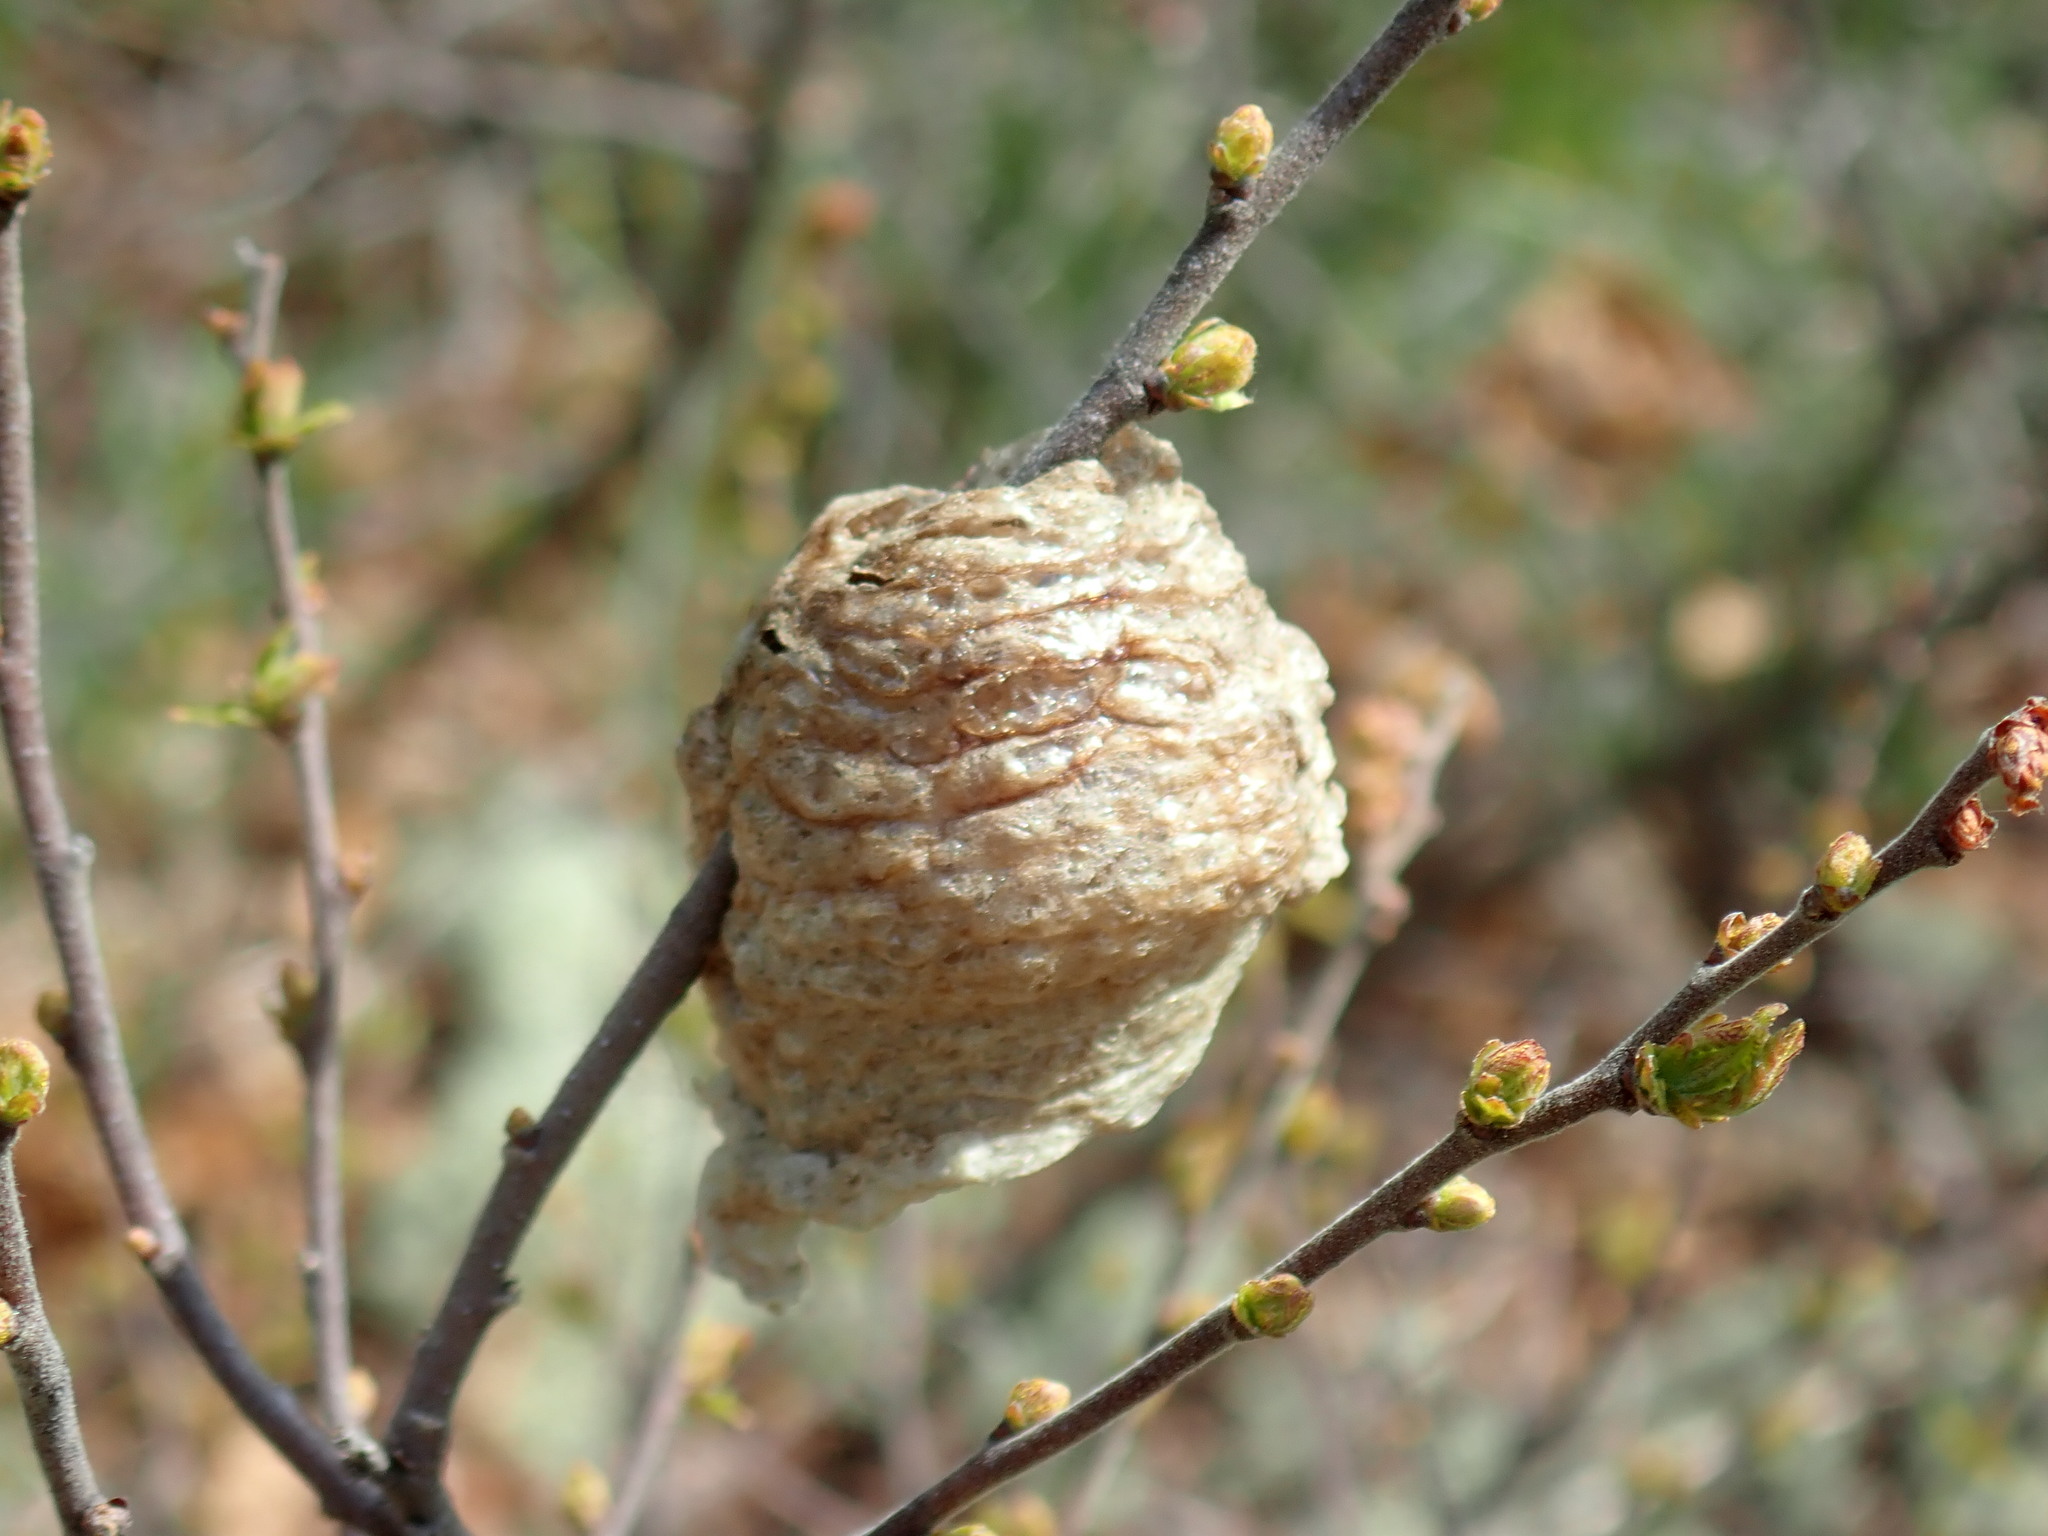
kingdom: Animalia
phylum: Arthropoda
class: Insecta
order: Mantodea
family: Mantidae
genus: Tenodera
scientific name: Tenodera sinensis
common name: Chinese mantis
